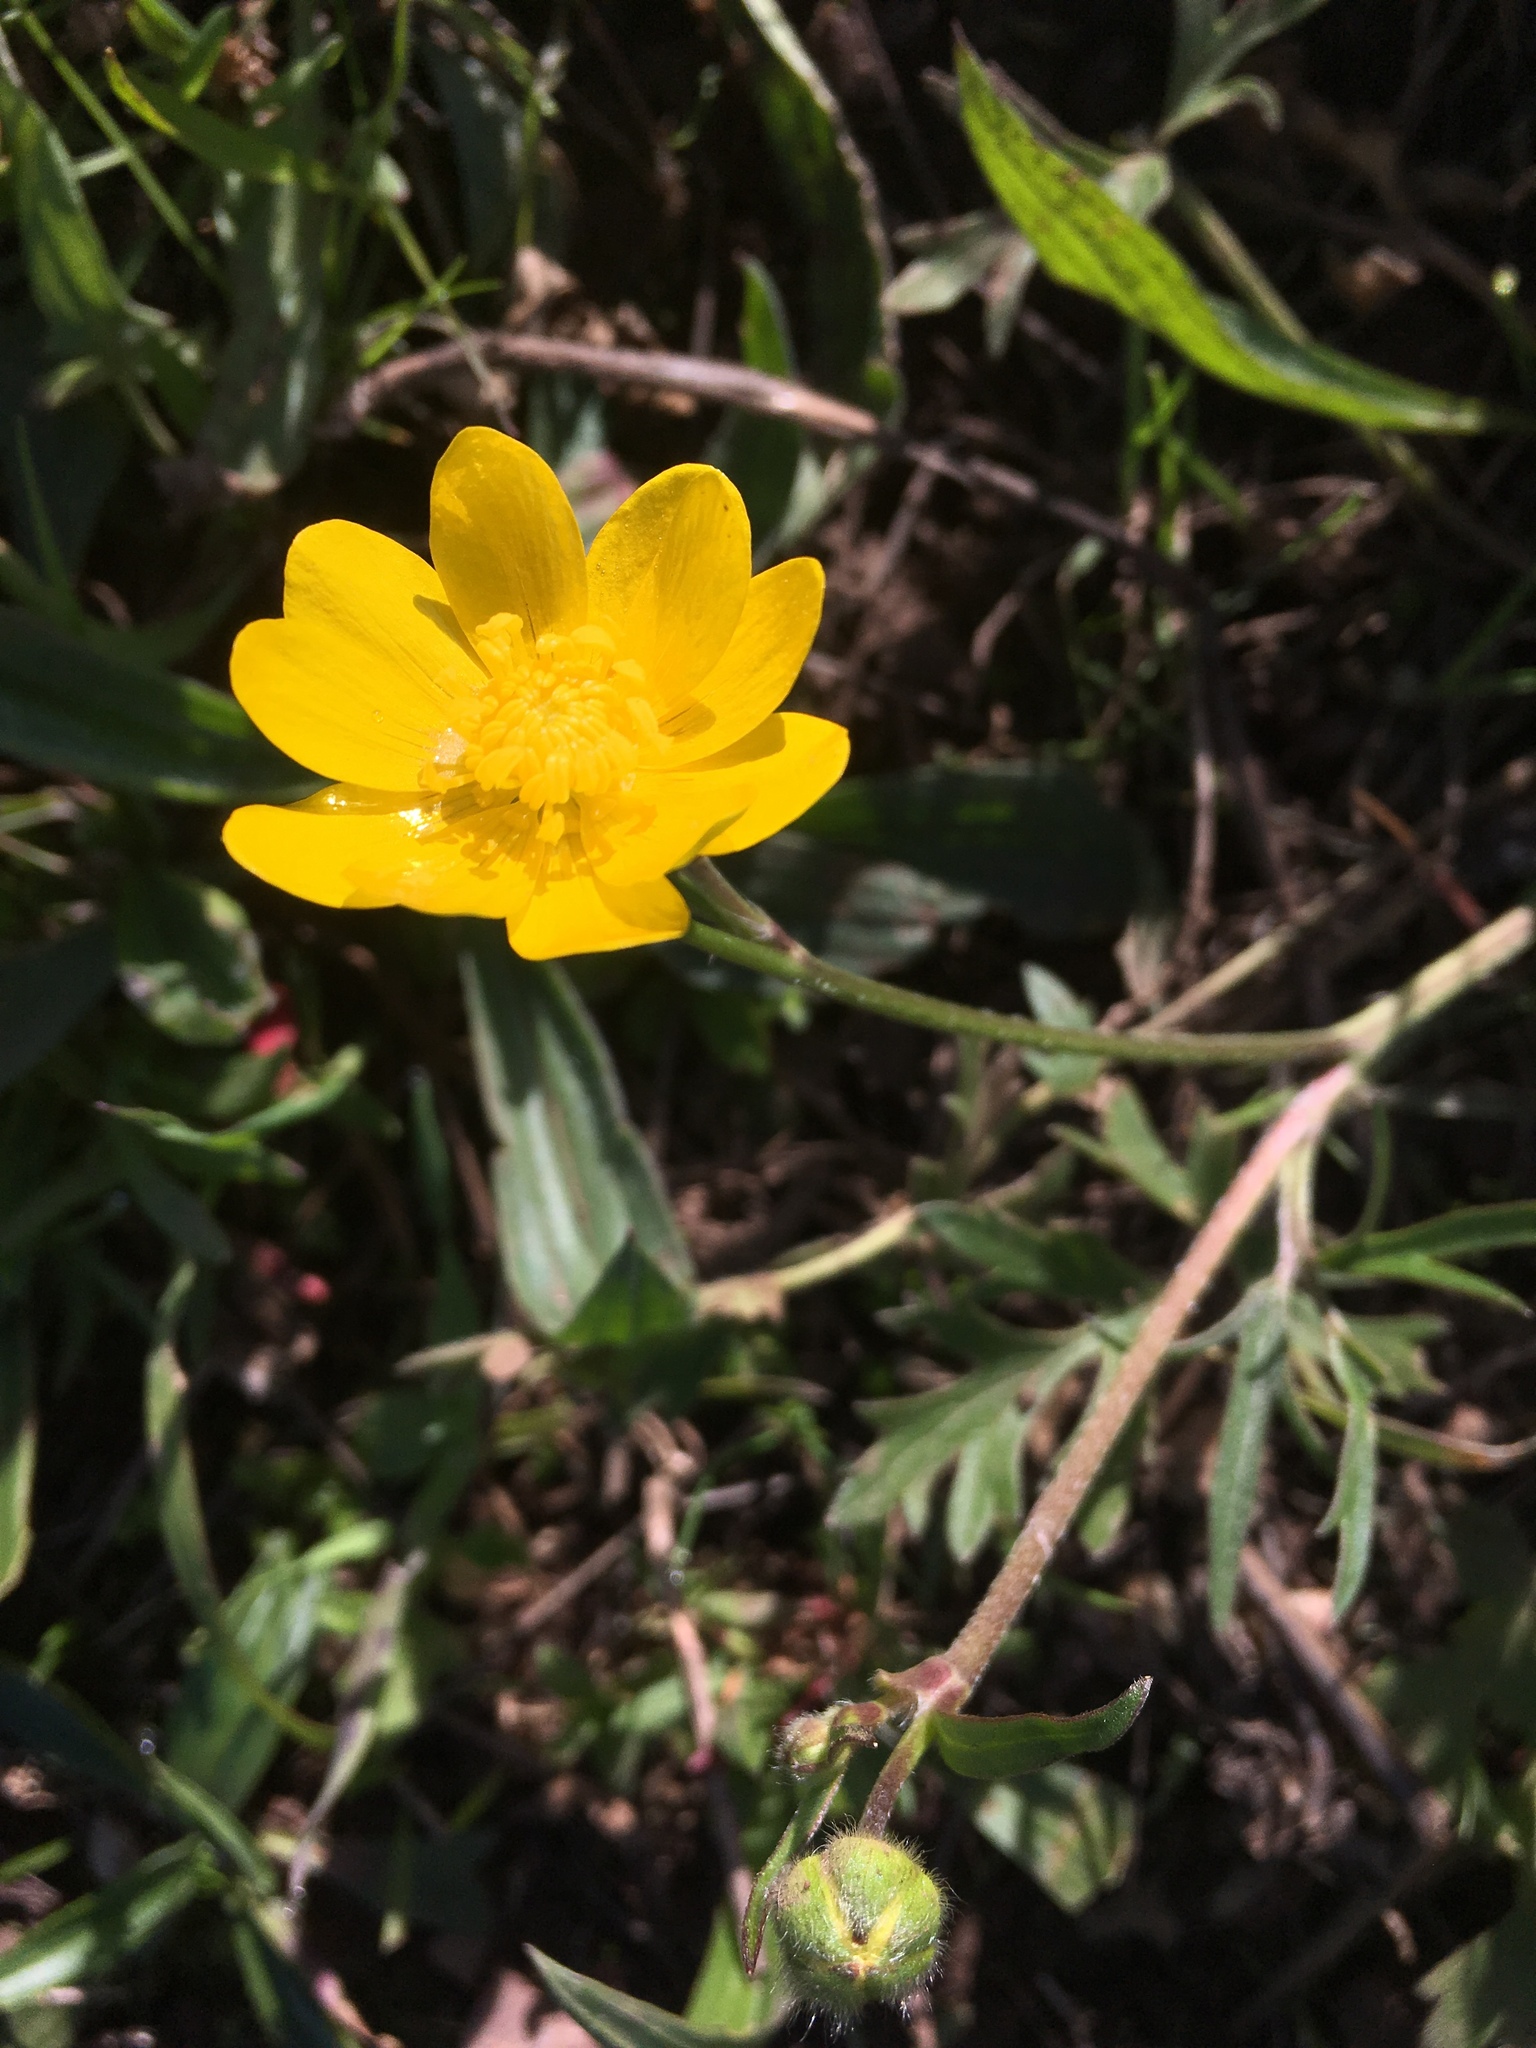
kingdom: Plantae
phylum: Tracheophyta
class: Magnoliopsida
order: Ranunculales
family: Ranunculaceae
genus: Ranunculus
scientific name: Ranunculus californicus
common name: California buttercup
